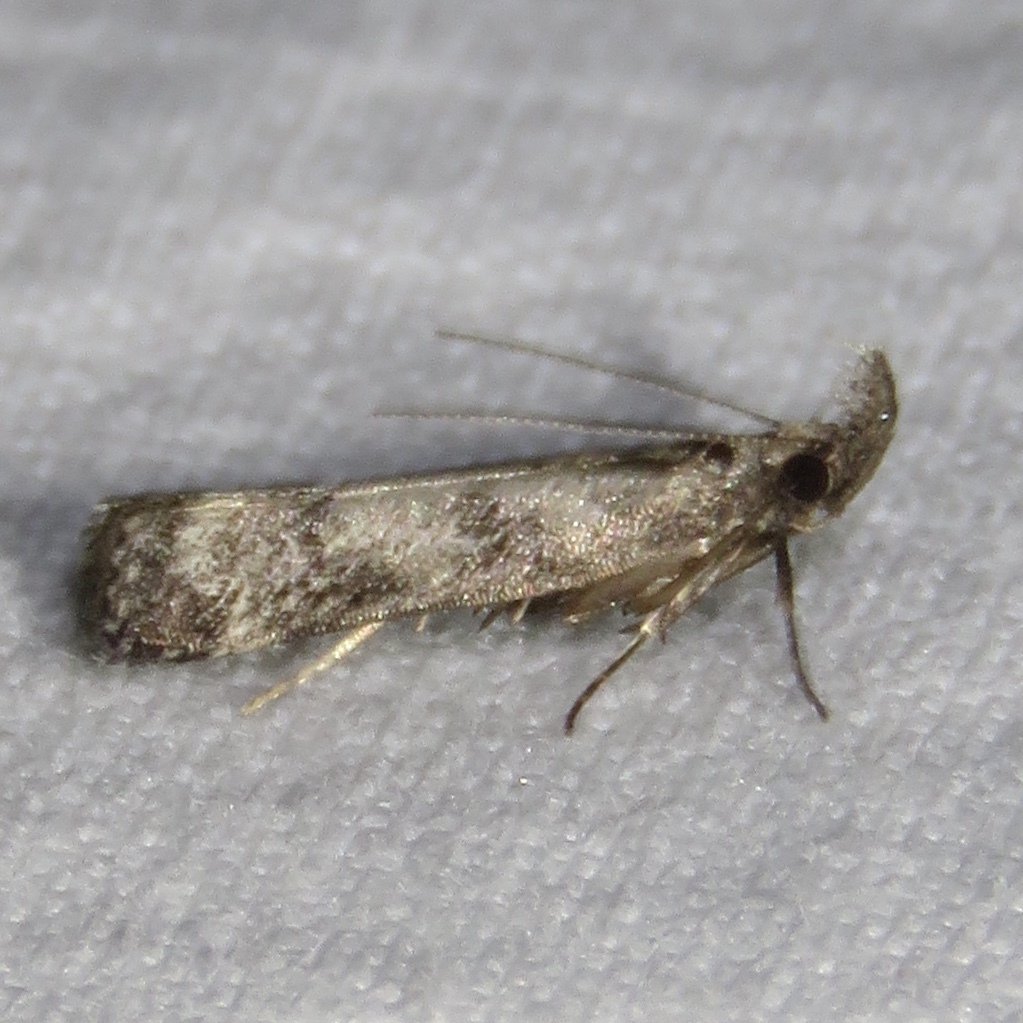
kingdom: Animalia
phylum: Arthropoda
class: Insecta
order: Lepidoptera
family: Gelechiidae
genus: Dichomeris
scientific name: Dichomeris inversella
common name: Inverse dichomeris moth
